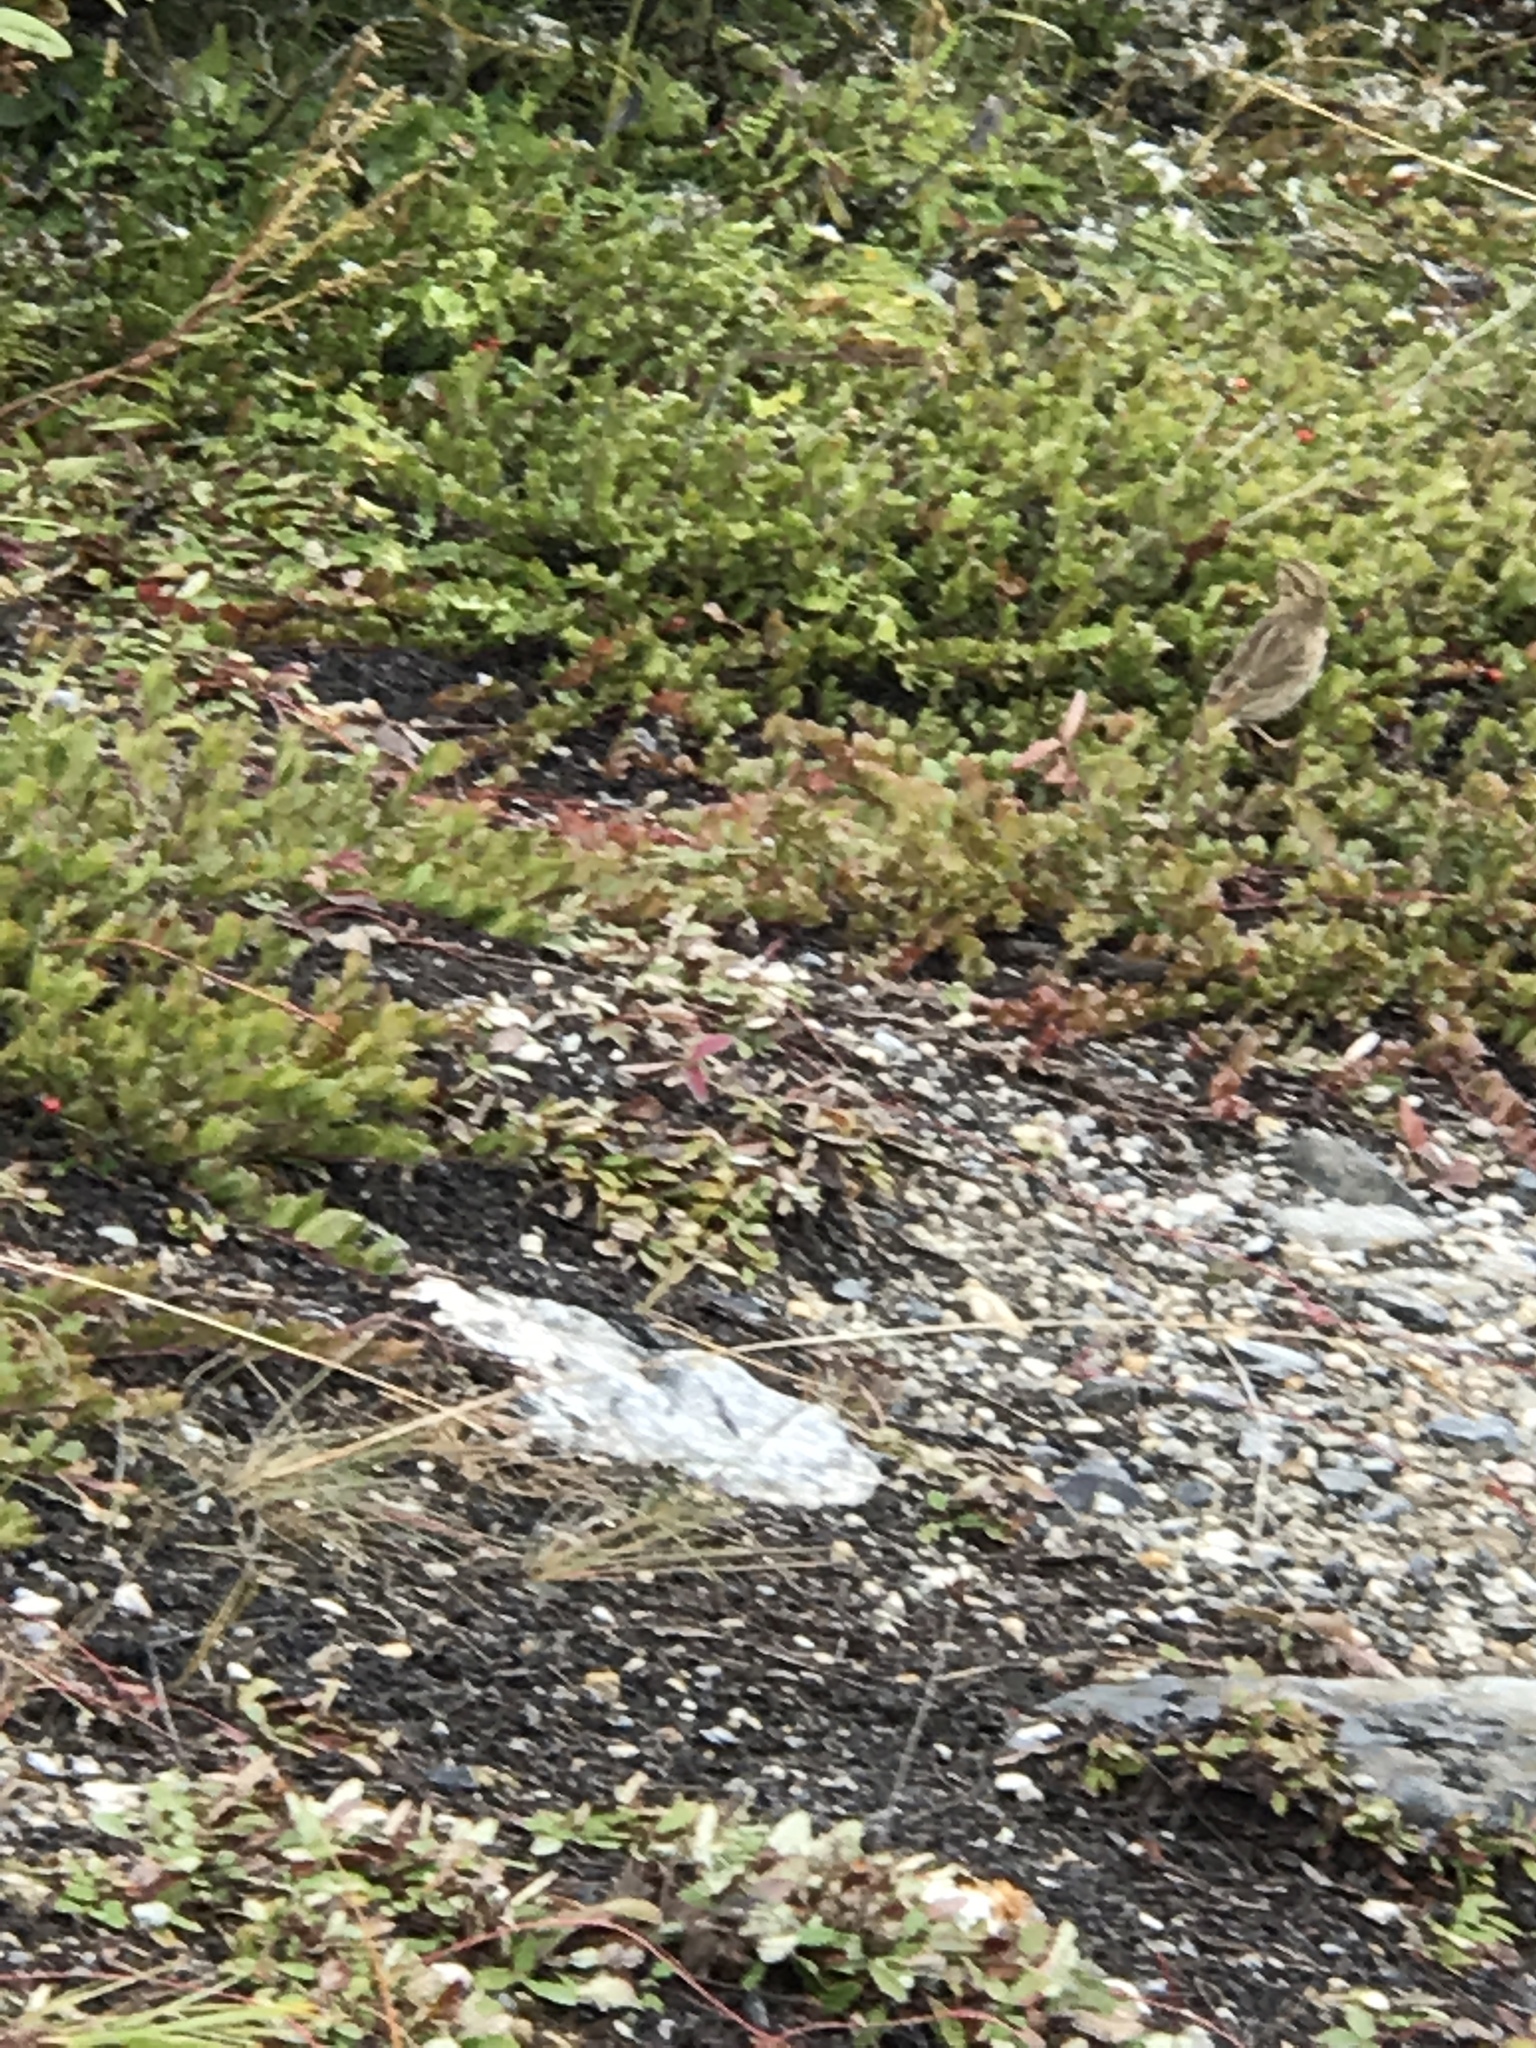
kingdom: Animalia
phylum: Chordata
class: Aves
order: Passeriformes
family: Passerellidae
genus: Zonotrichia
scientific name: Zonotrichia albicollis
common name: White-throated sparrow
